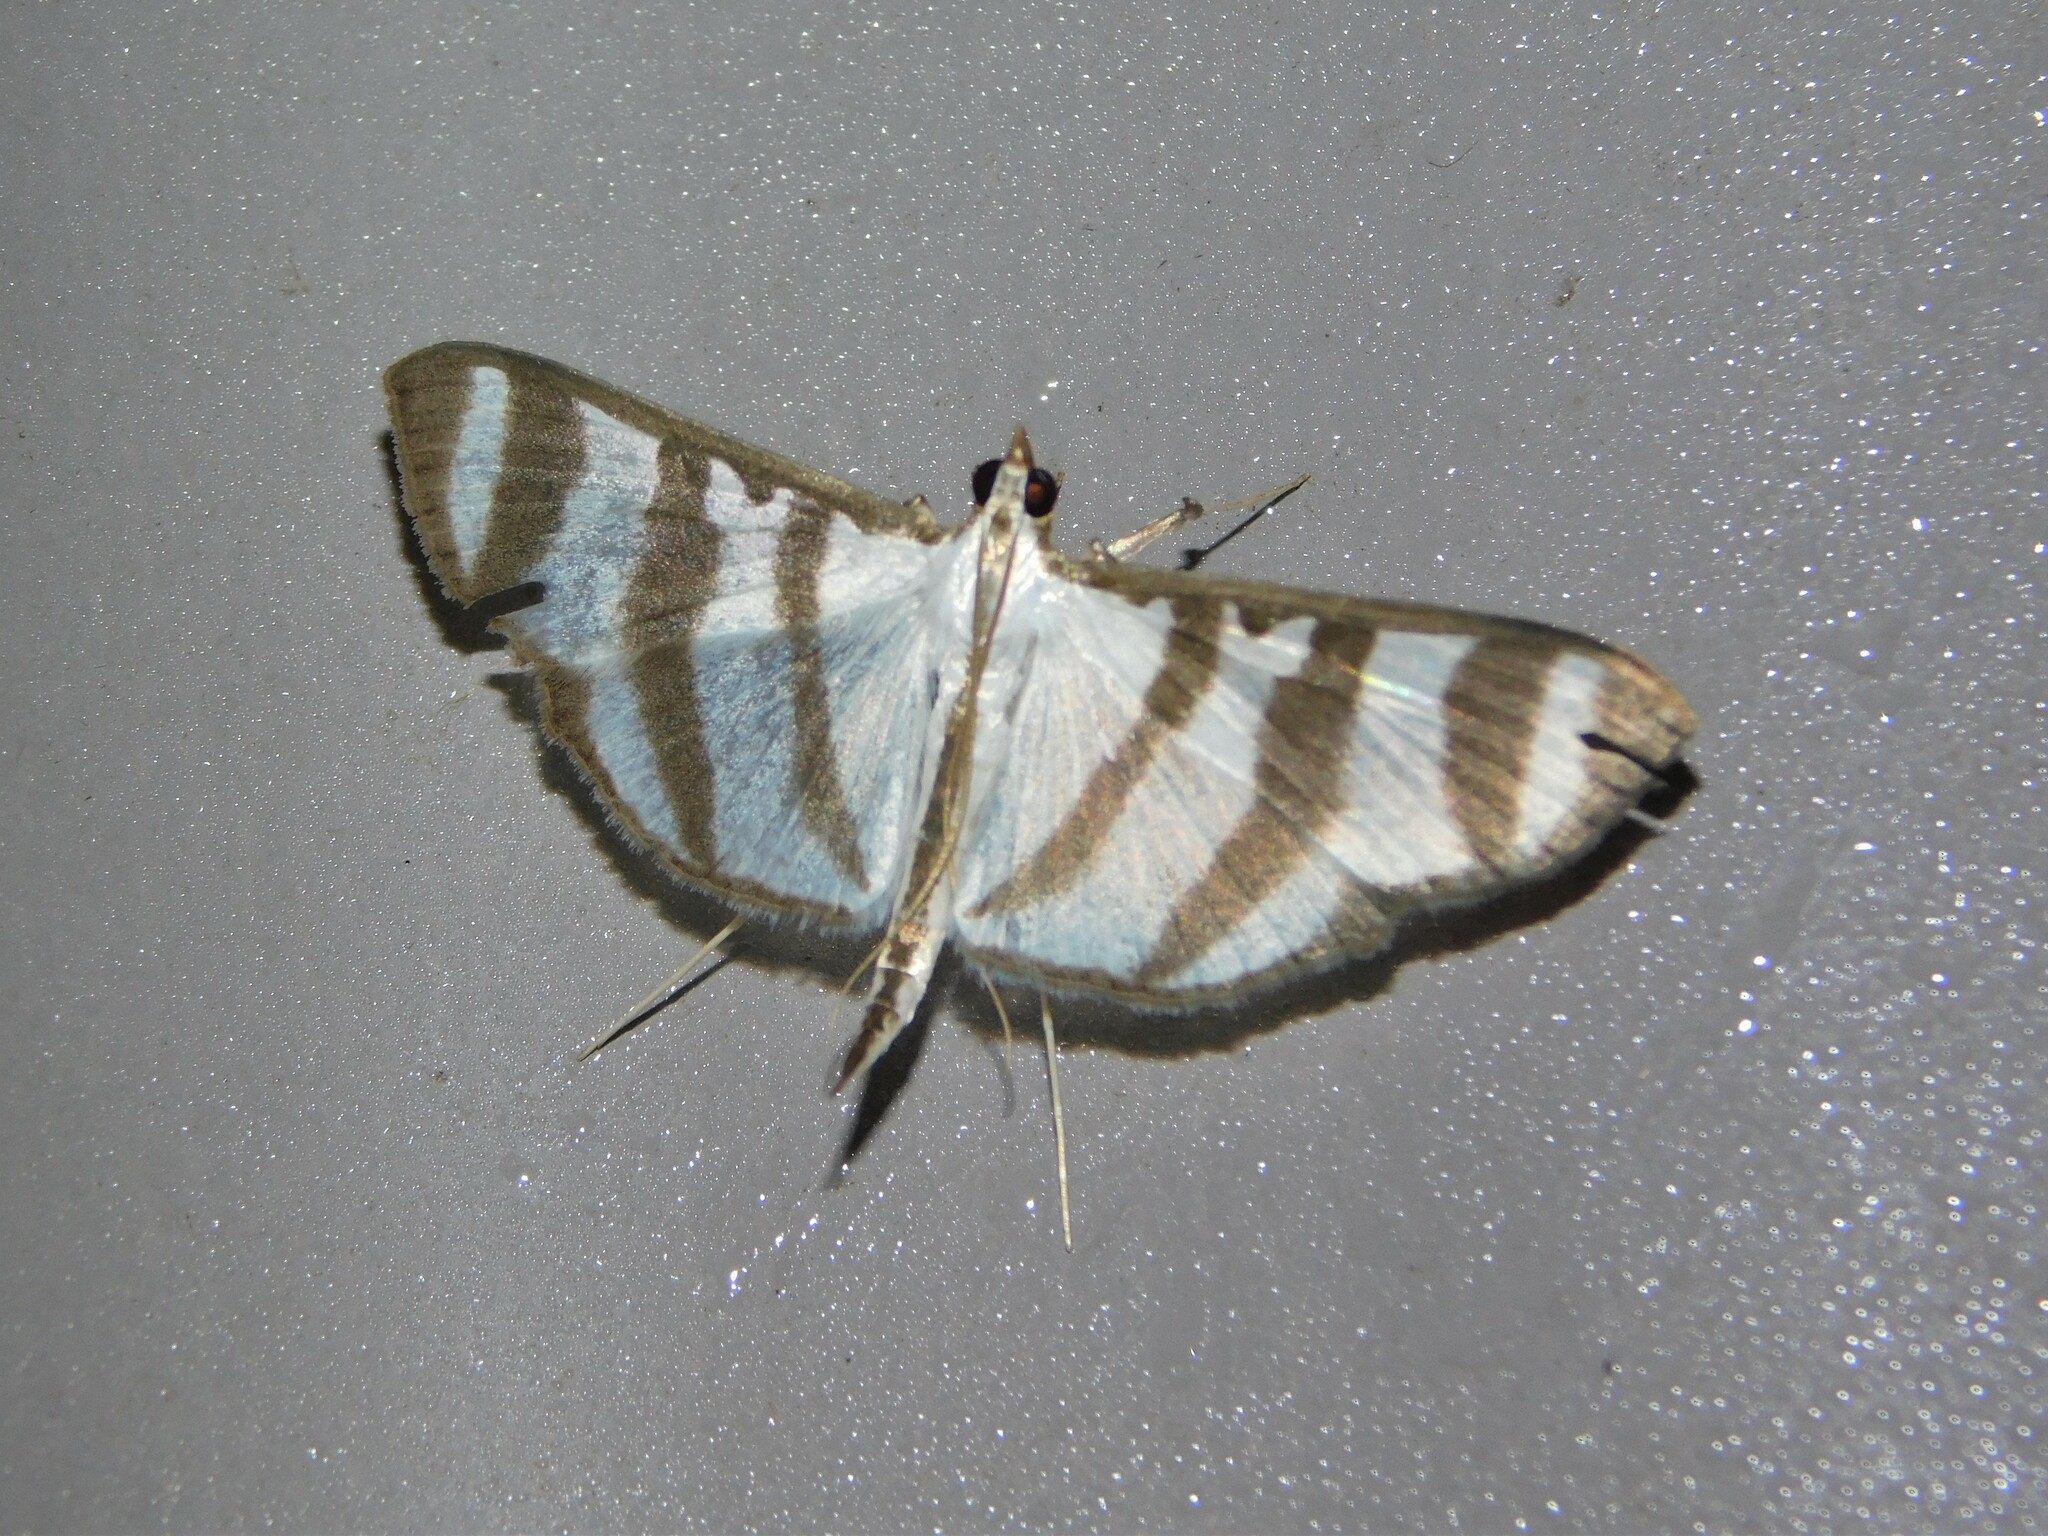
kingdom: Animalia
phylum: Arthropoda
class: Insecta
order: Lepidoptera
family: Crambidae
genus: Zebronia
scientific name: Zebronia phenice
